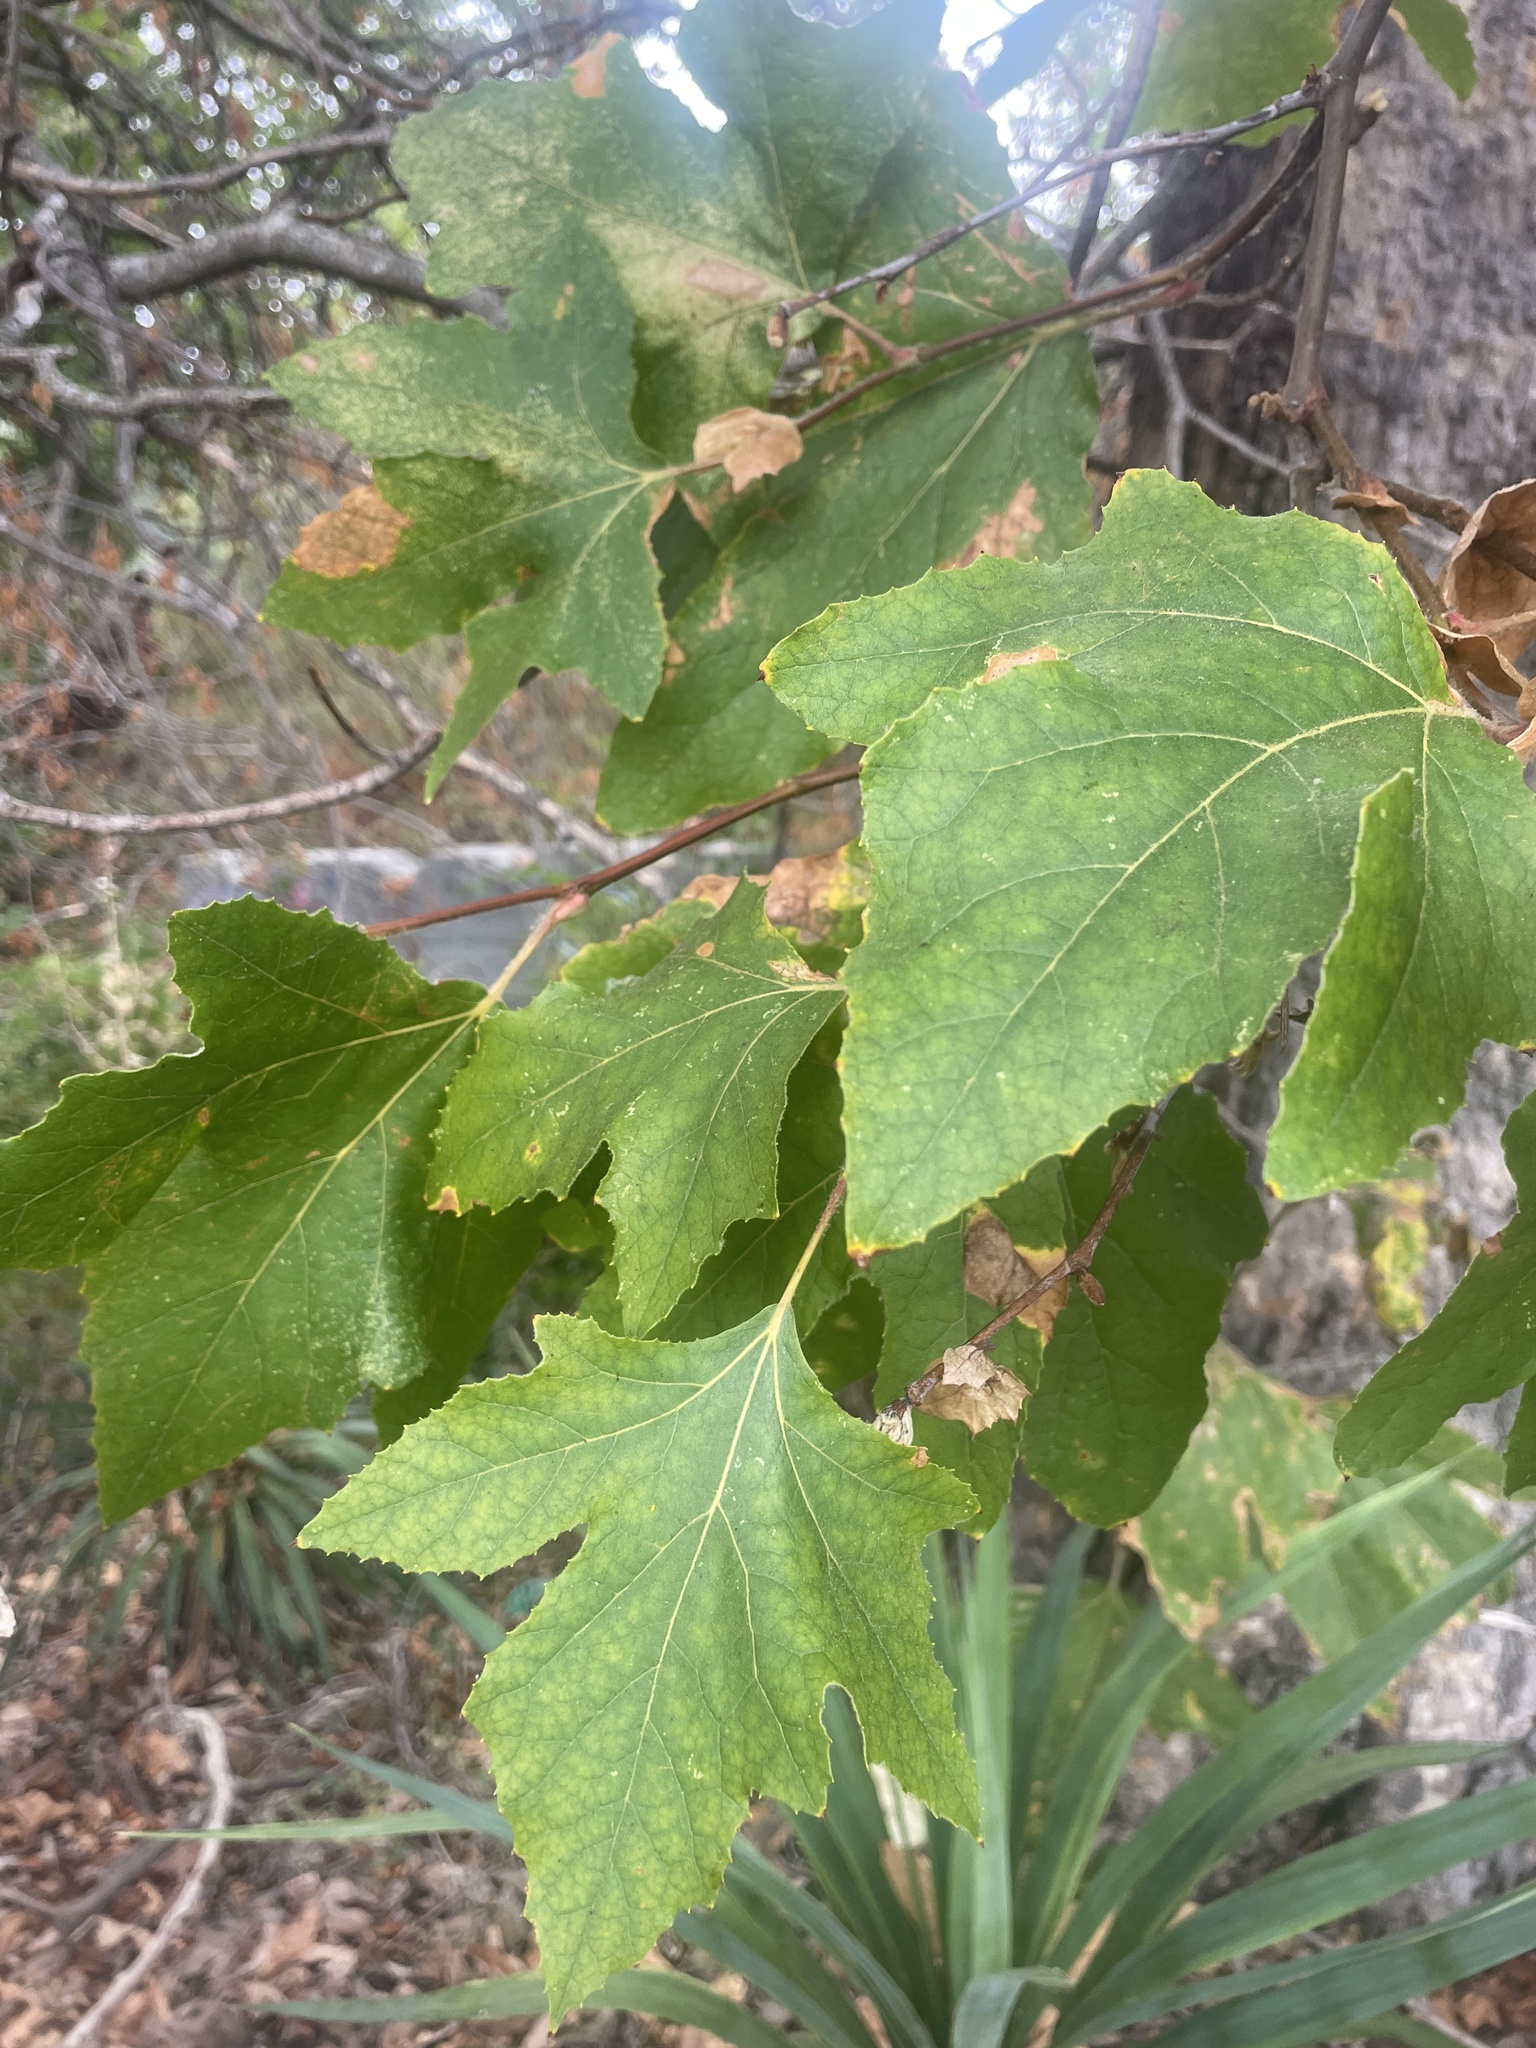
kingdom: Plantae
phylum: Tracheophyta
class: Magnoliopsida
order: Proteales
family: Platanaceae
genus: Platanus
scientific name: Platanus racemosa
